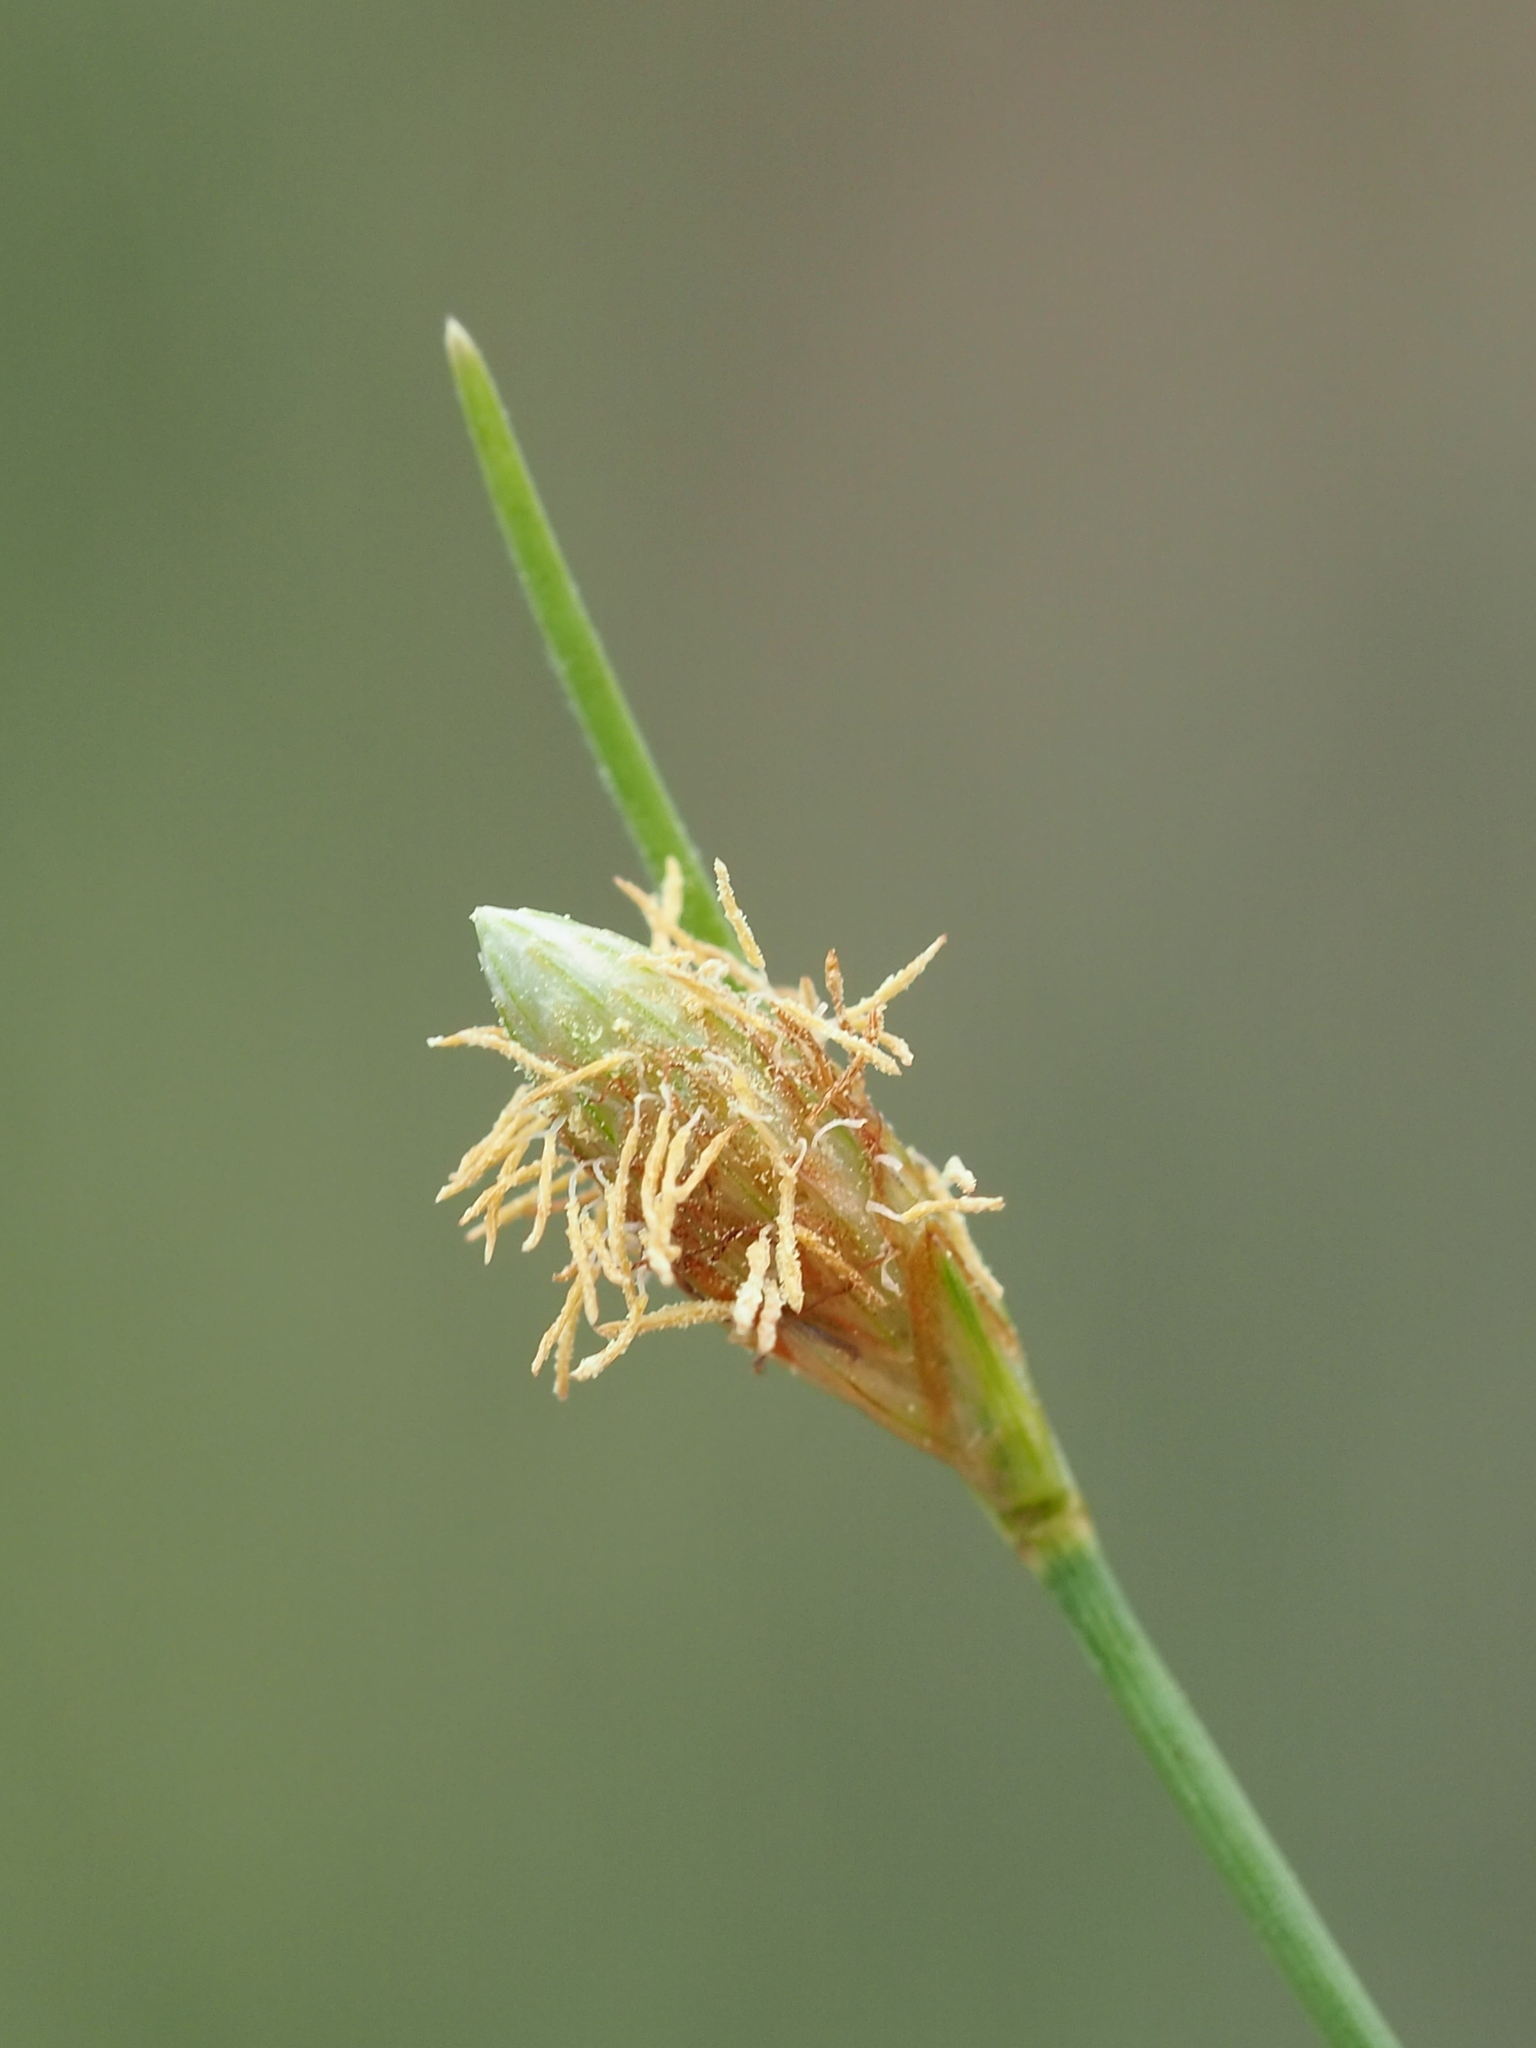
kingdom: Plantae
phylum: Tracheophyta
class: Liliopsida
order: Poales
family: Cyperaceae
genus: Fimbristylis
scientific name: Fimbristylis polytrichoides
